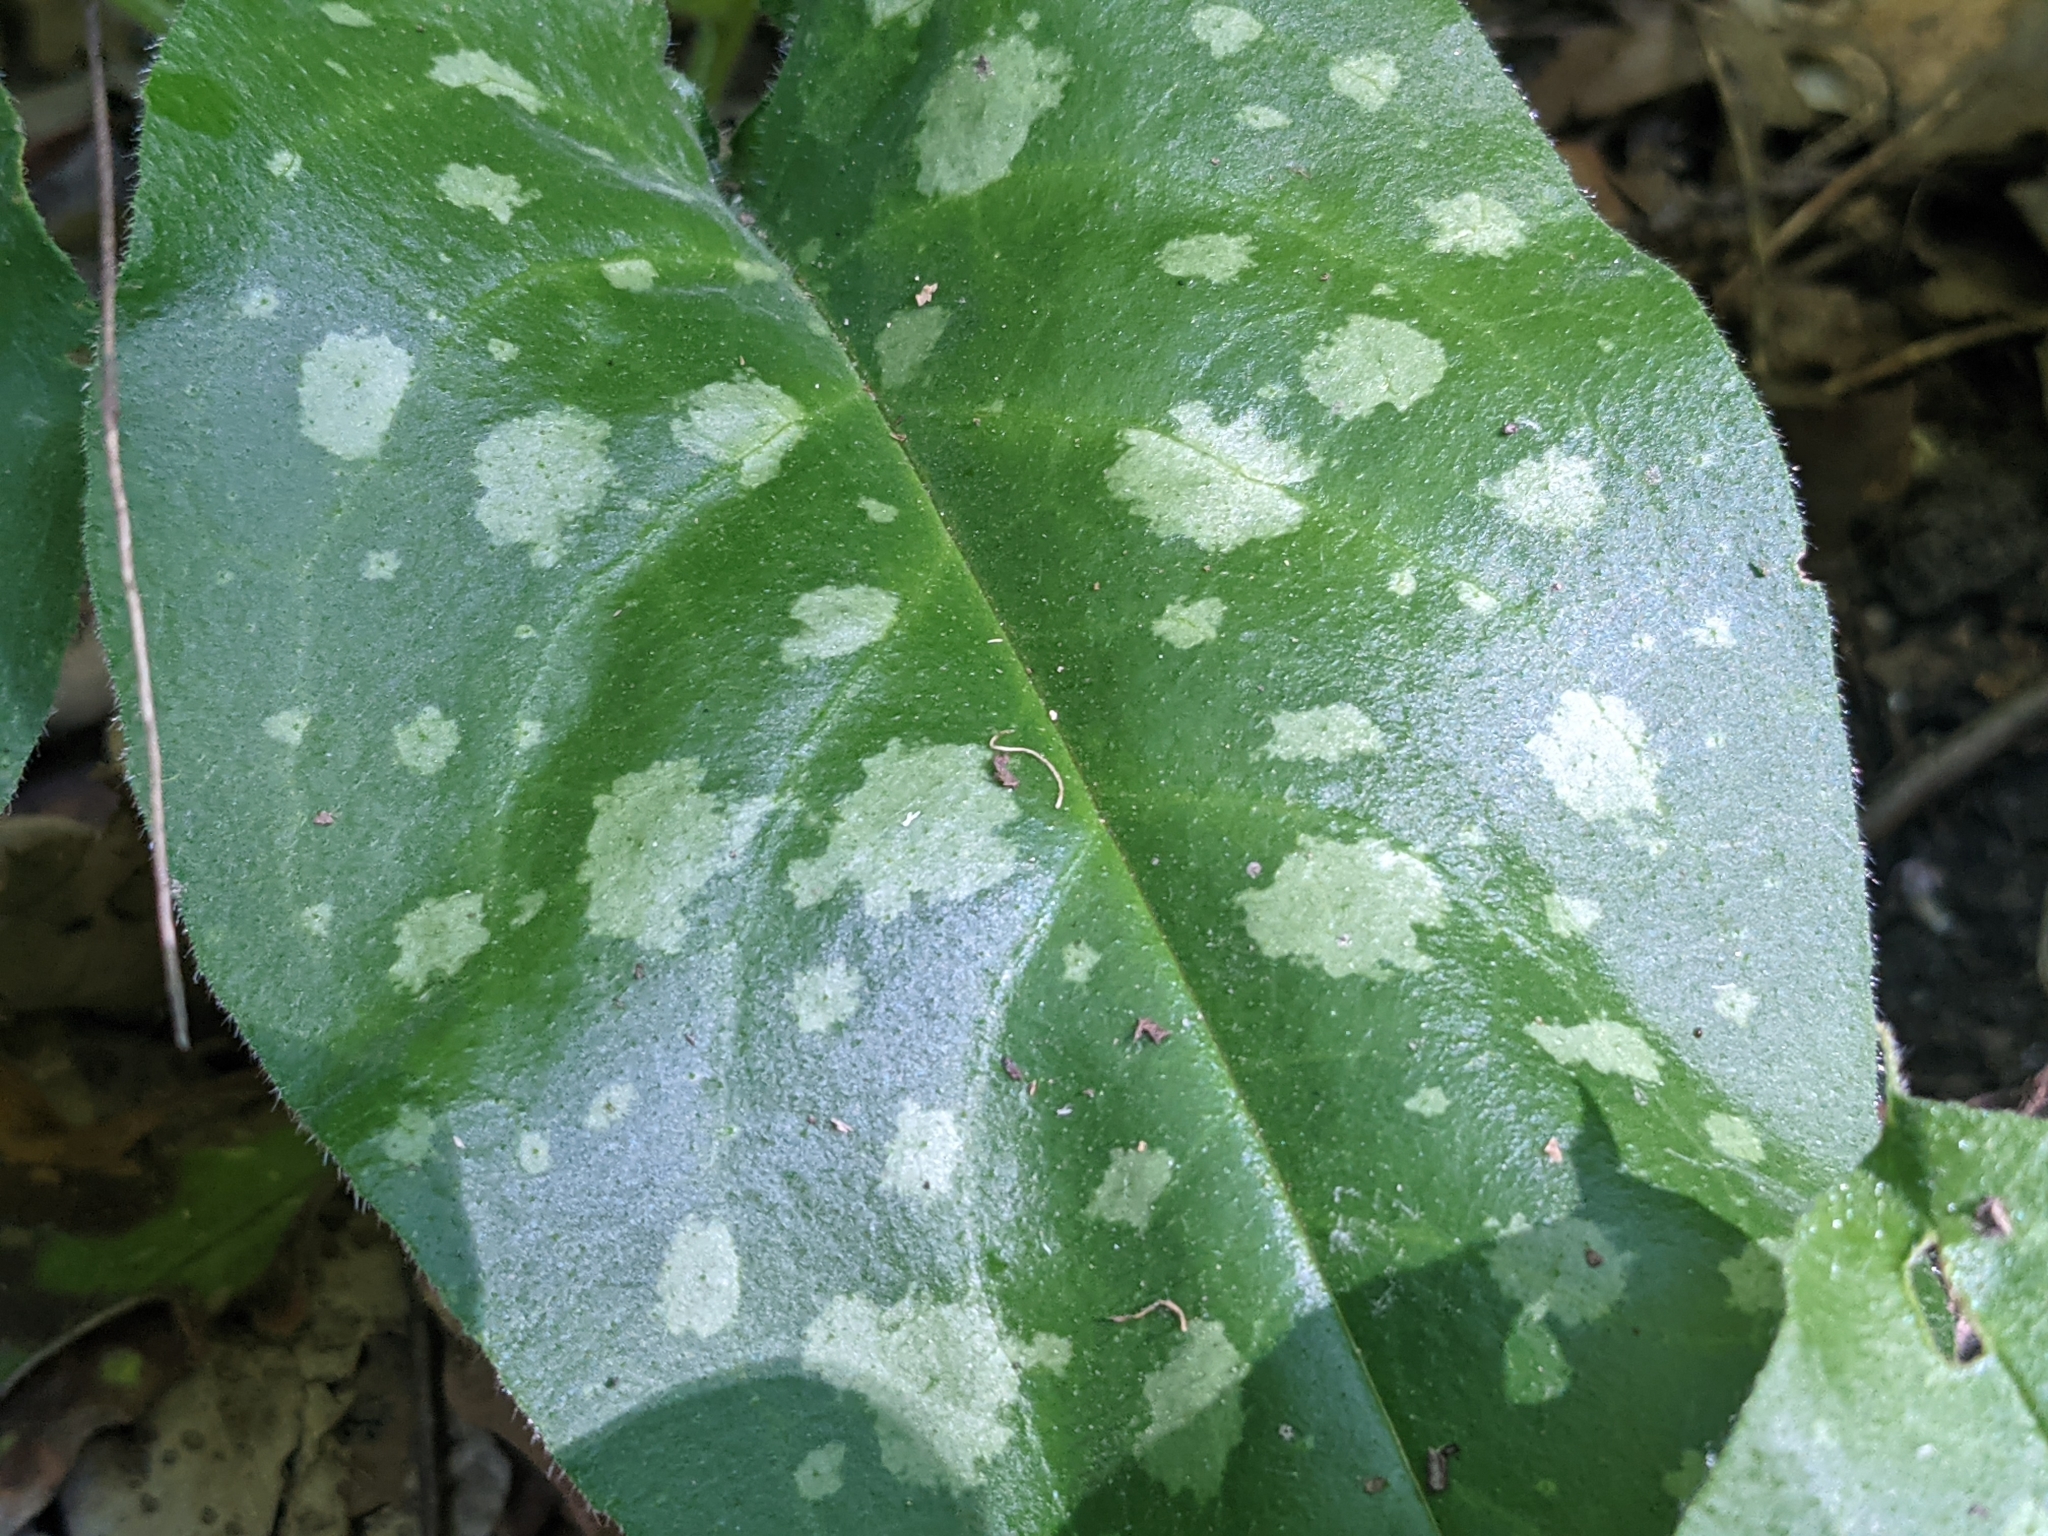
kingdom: Plantae
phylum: Tracheophyta
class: Magnoliopsida
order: Boraginales
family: Boraginaceae
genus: Pulmonaria
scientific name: Pulmonaria officinalis
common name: Lungwort
